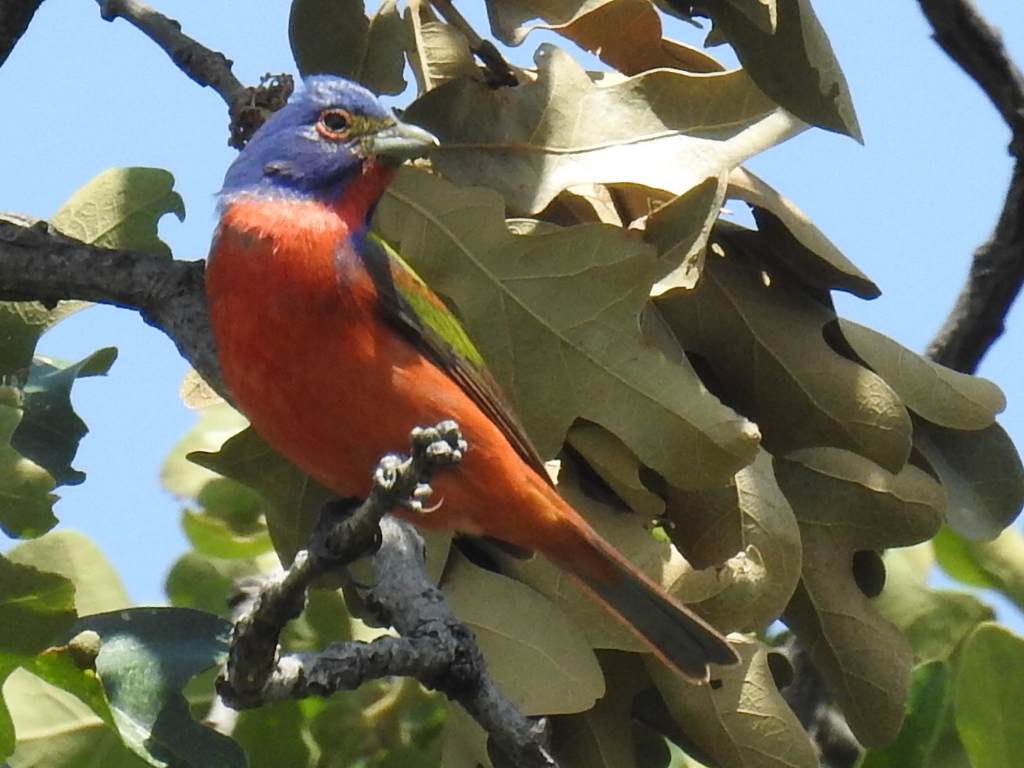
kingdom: Animalia
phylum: Chordata
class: Aves
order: Passeriformes
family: Cardinalidae
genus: Passerina
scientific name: Passerina ciris
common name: Painted bunting
